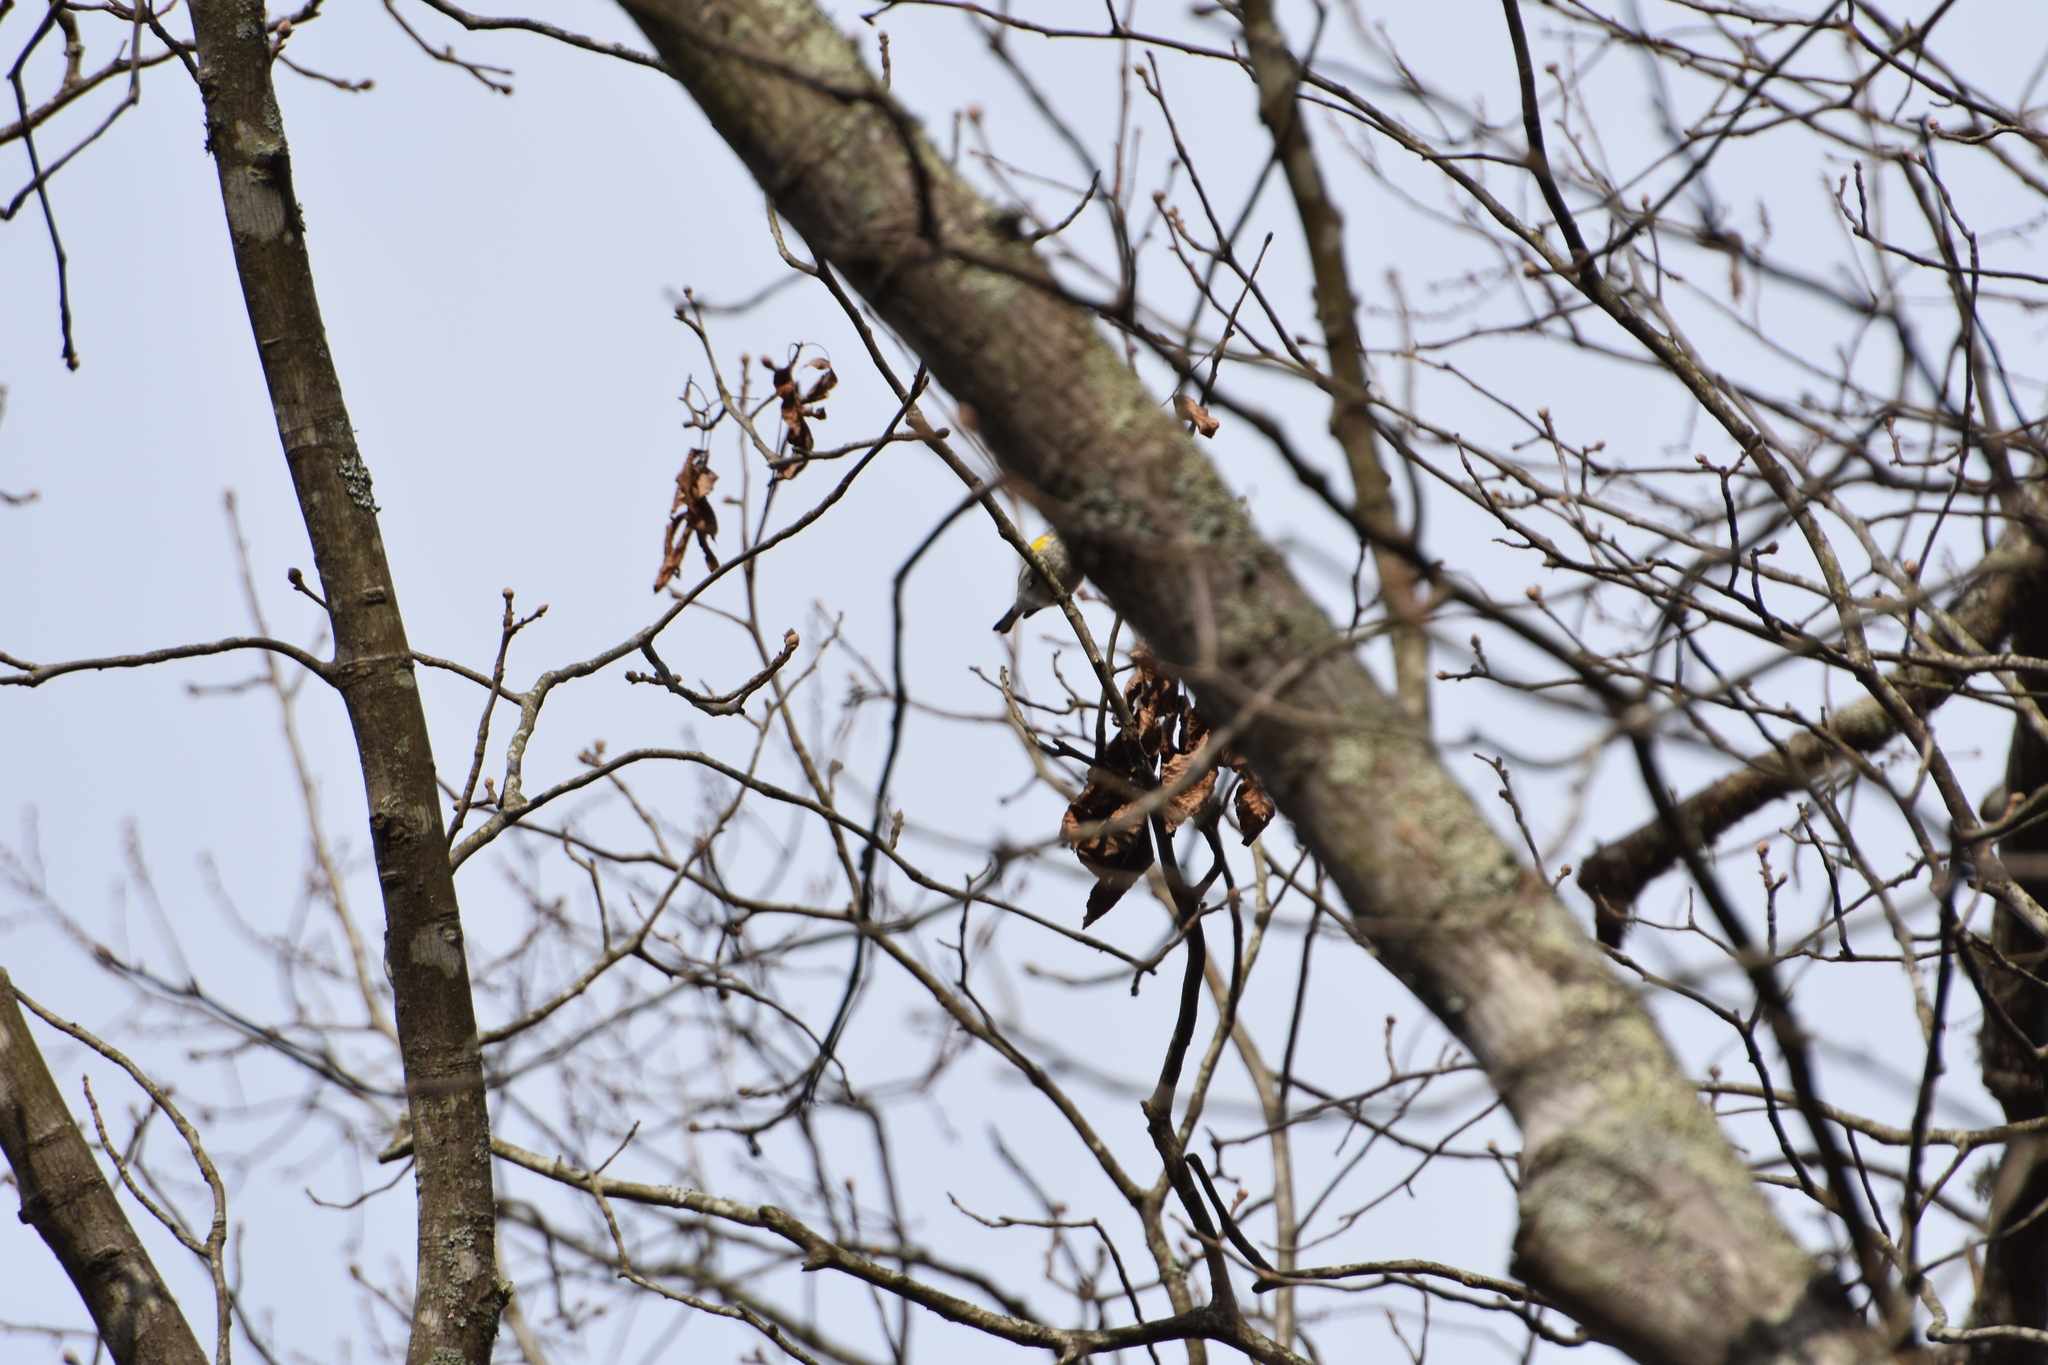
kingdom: Animalia
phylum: Chordata
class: Aves
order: Passeriformes
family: Parulidae
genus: Setophaga
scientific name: Setophaga coronata
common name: Myrtle warbler
